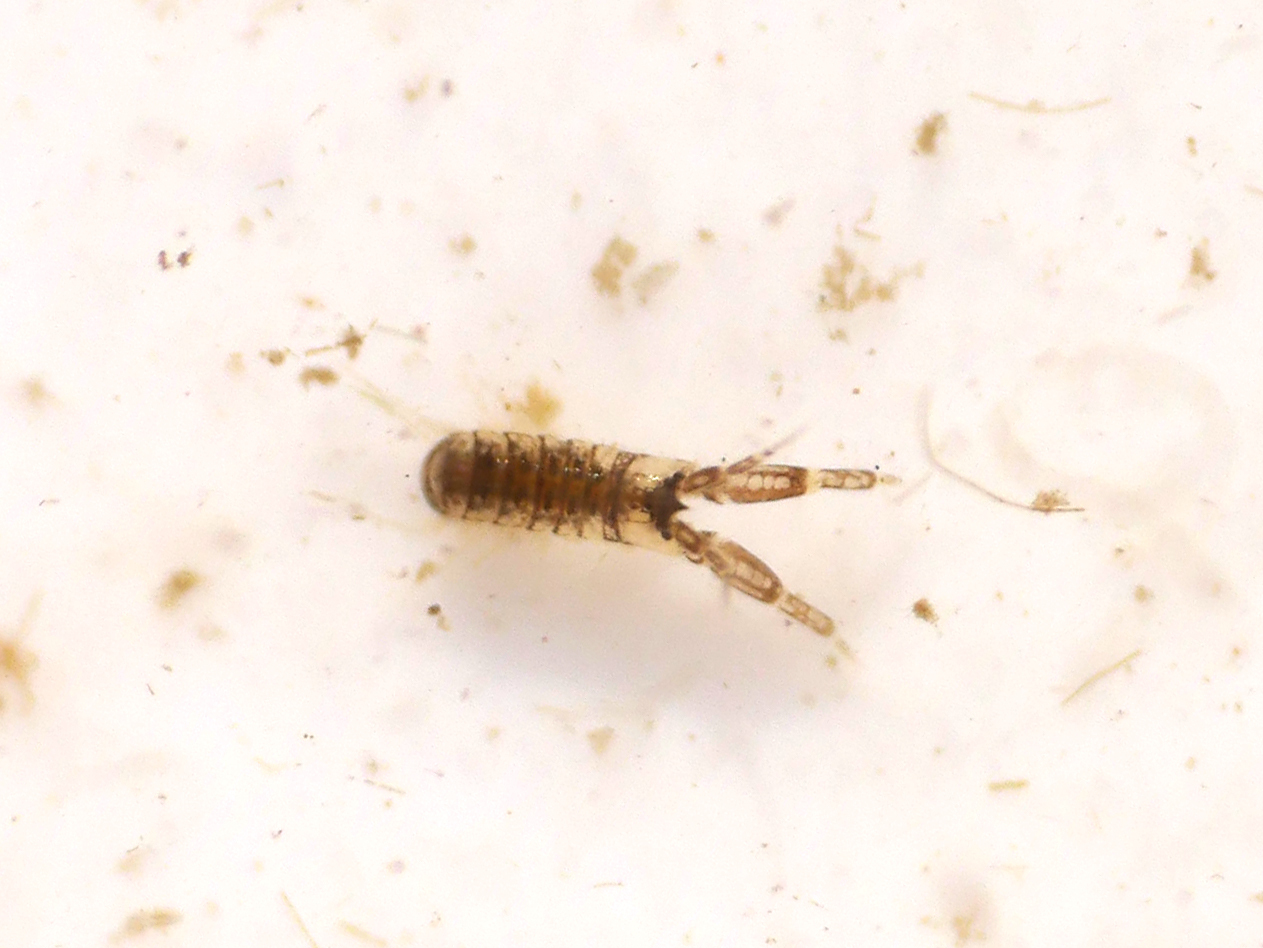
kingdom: Animalia
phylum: Arthropoda
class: Malacostraca
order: Amphipoda
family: Corophiidae
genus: Monocorophium
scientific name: Monocorophium insidiosum
